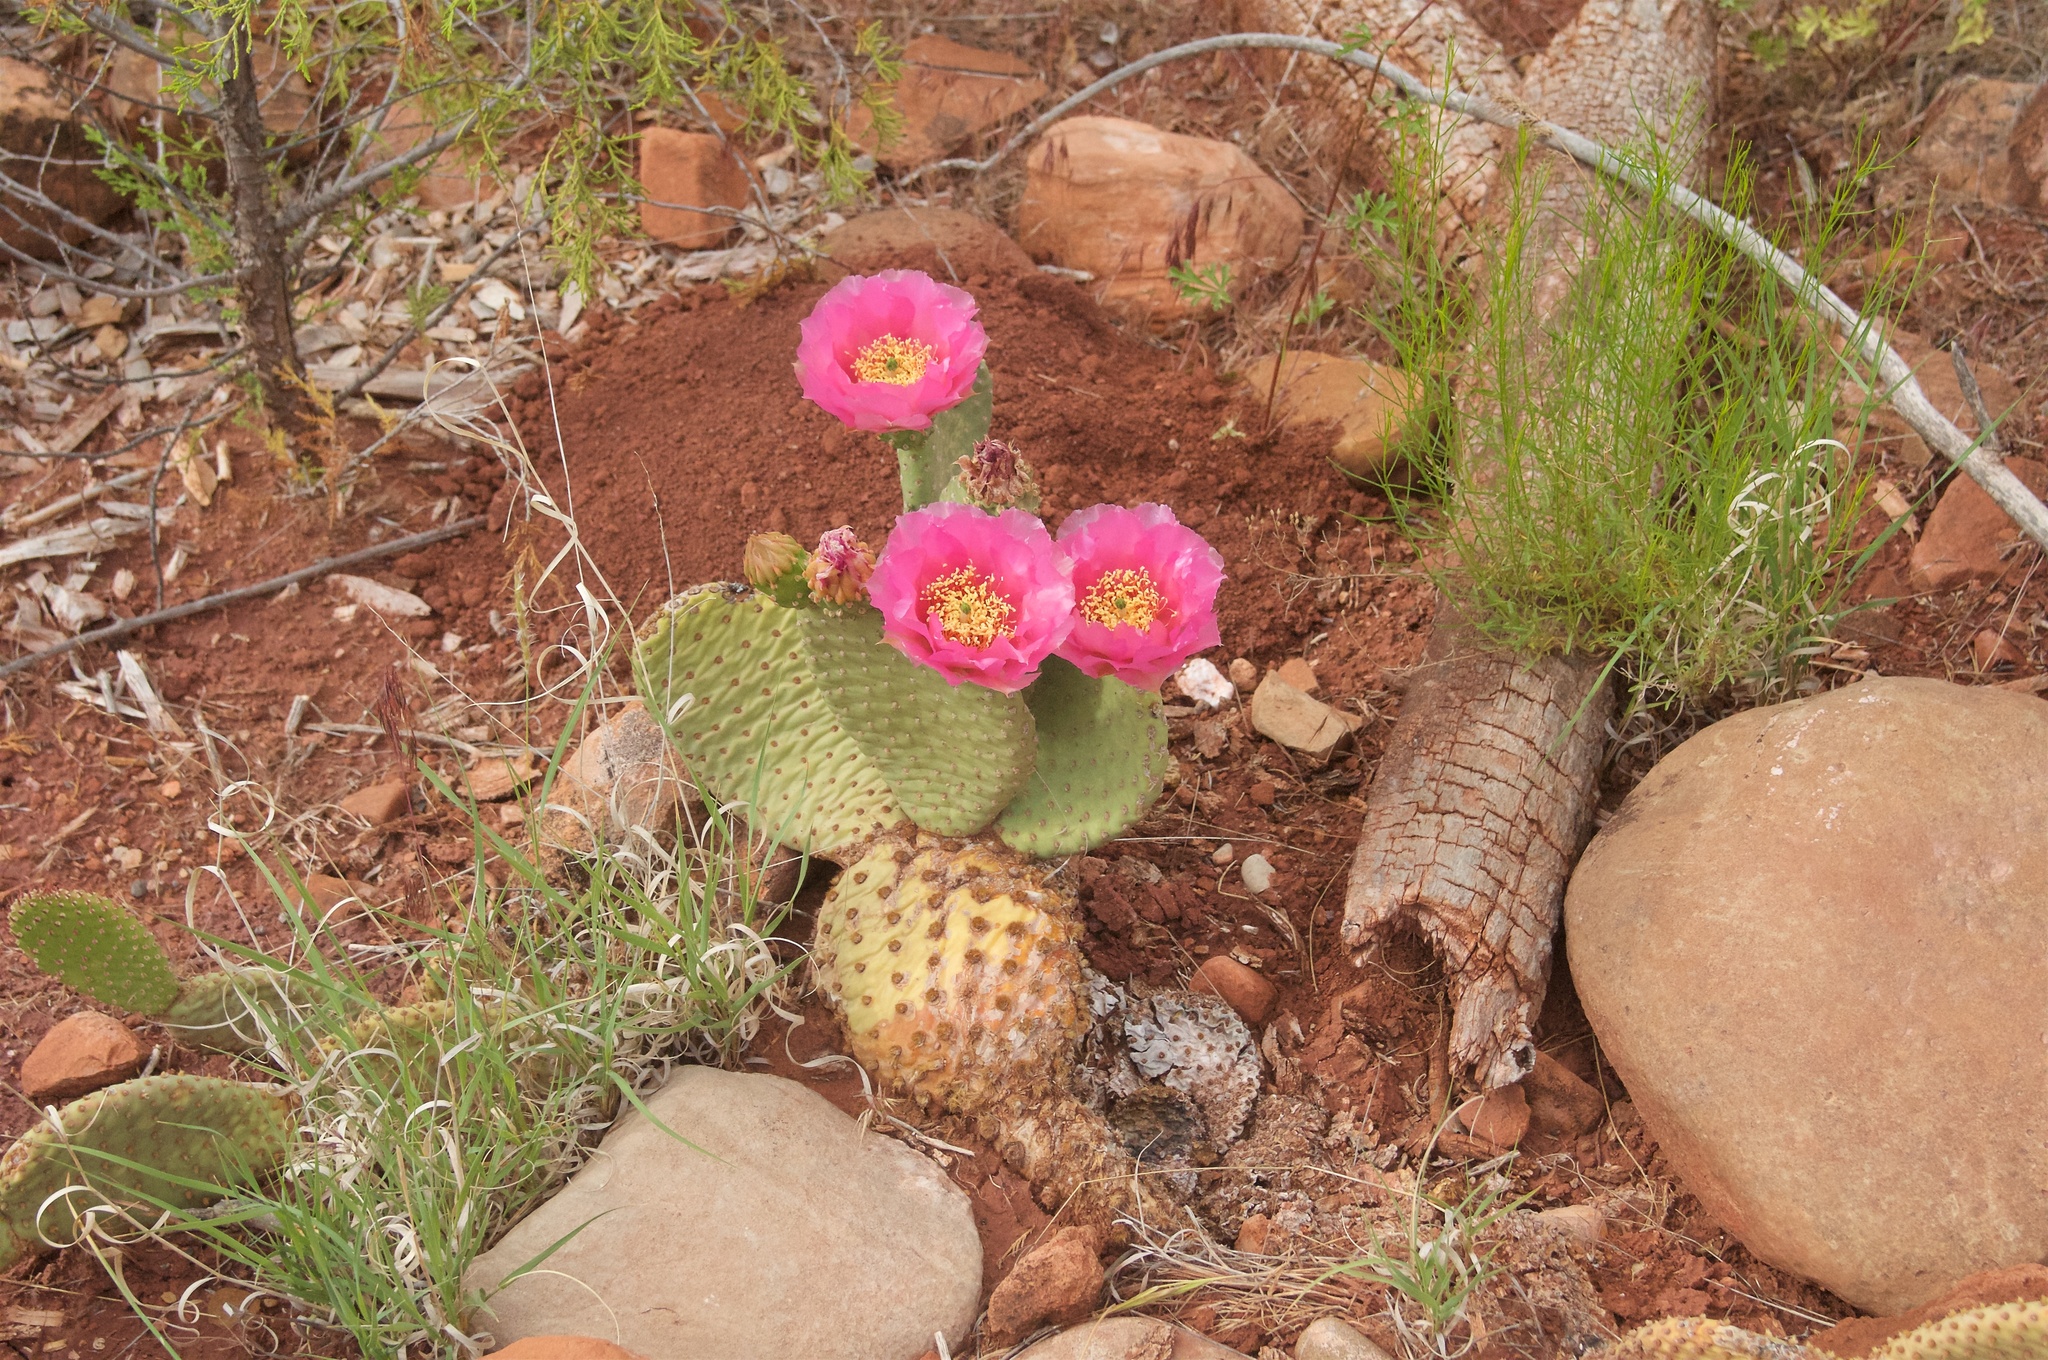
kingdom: Plantae
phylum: Tracheophyta
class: Magnoliopsida
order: Caryophyllales
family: Cactaceae
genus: Opuntia
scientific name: Opuntia aurea
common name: Golden prickly-pear
